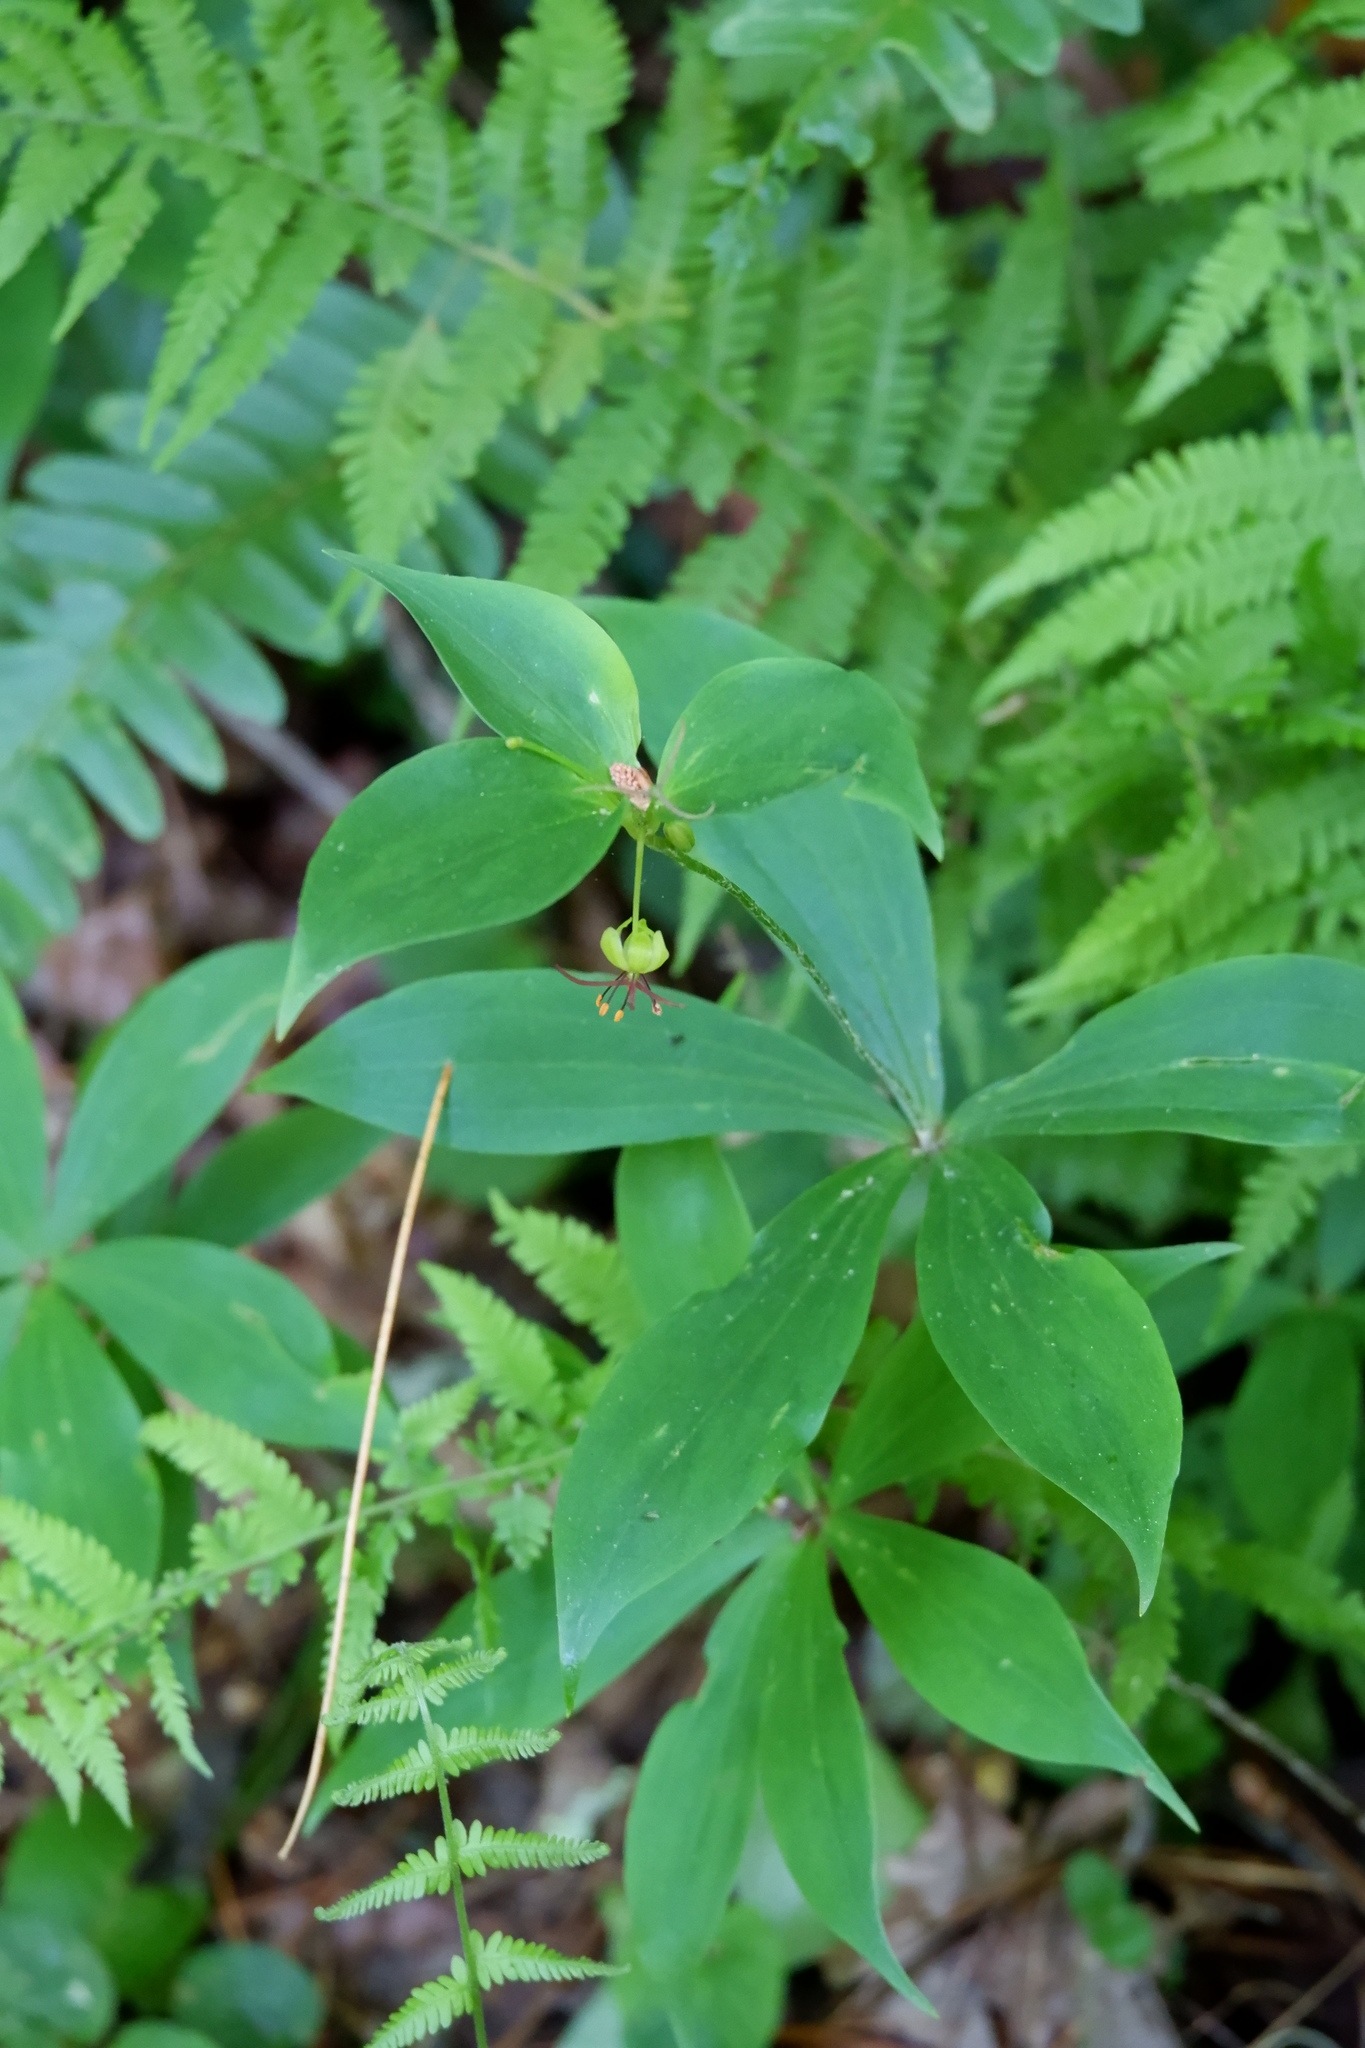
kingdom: Plantae
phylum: Tracheophyta
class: Liliopsida
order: Liliales
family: Liliaceae
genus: Medeola
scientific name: Medeola virginiana
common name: Indian cucumber-root
